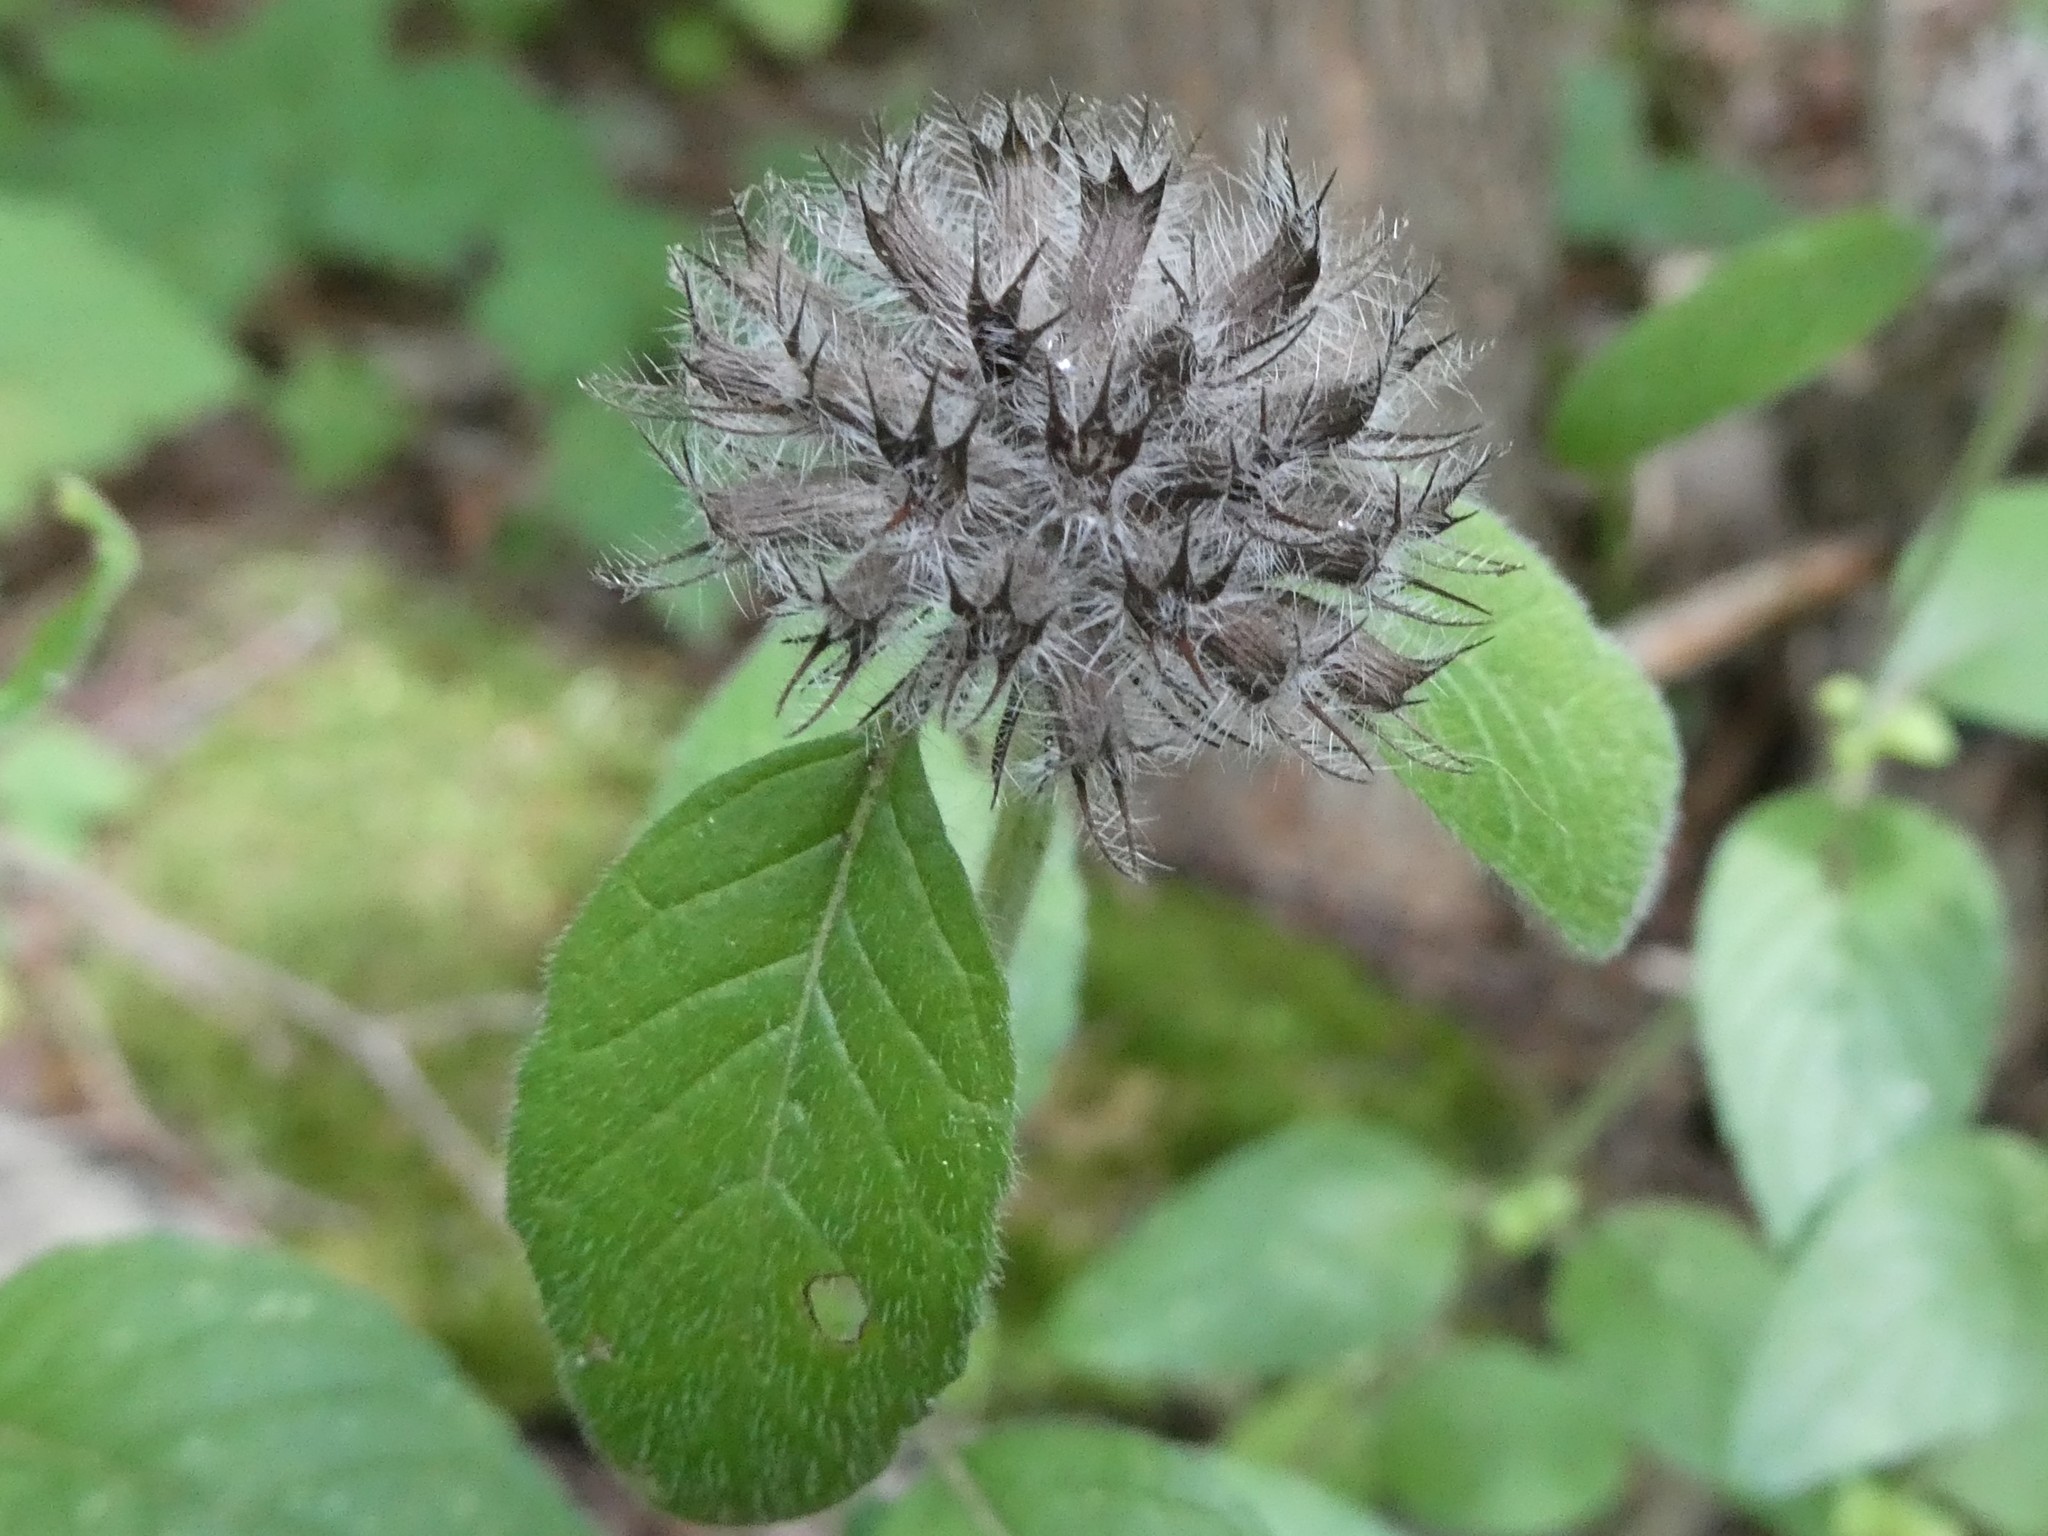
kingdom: Plantae
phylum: Tracheophyta
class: Magnoliopsida
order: Lamiales
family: Lamiaceae
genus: Clinopodium
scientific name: Clinopodium vulgare
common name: Wild basil
